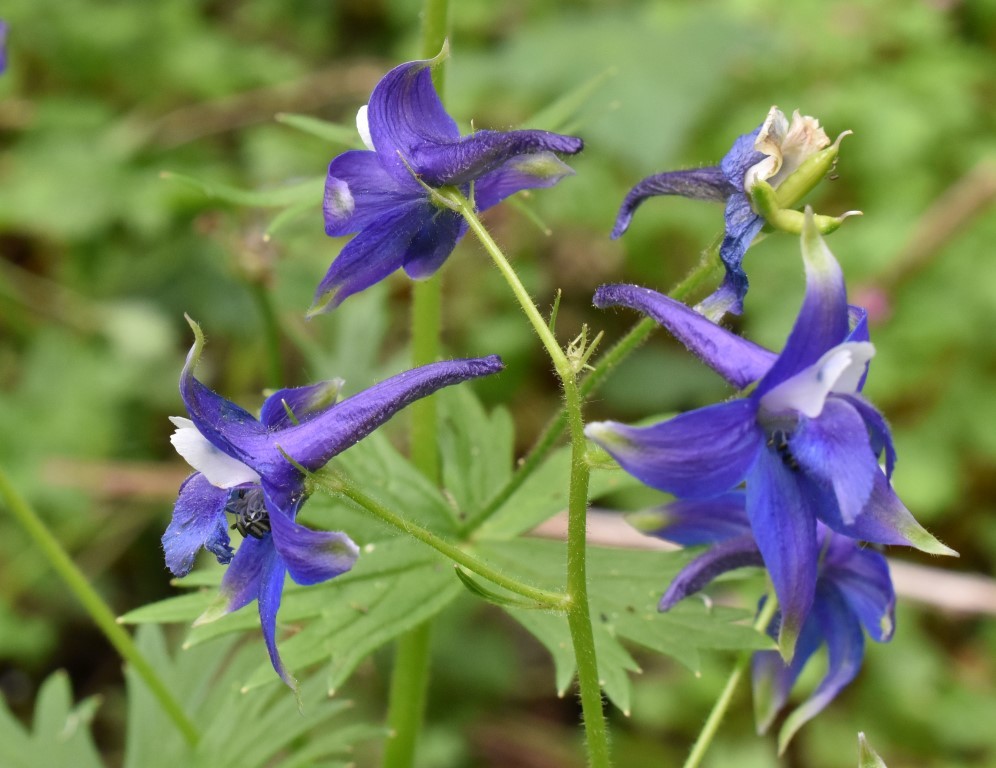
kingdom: Plantae
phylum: Tracheophyta
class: Magnoliopsida
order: Ranunculales
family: Ranunculaceae
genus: Delphinium
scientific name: Delphinium trolliifolium
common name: Cow-poison
